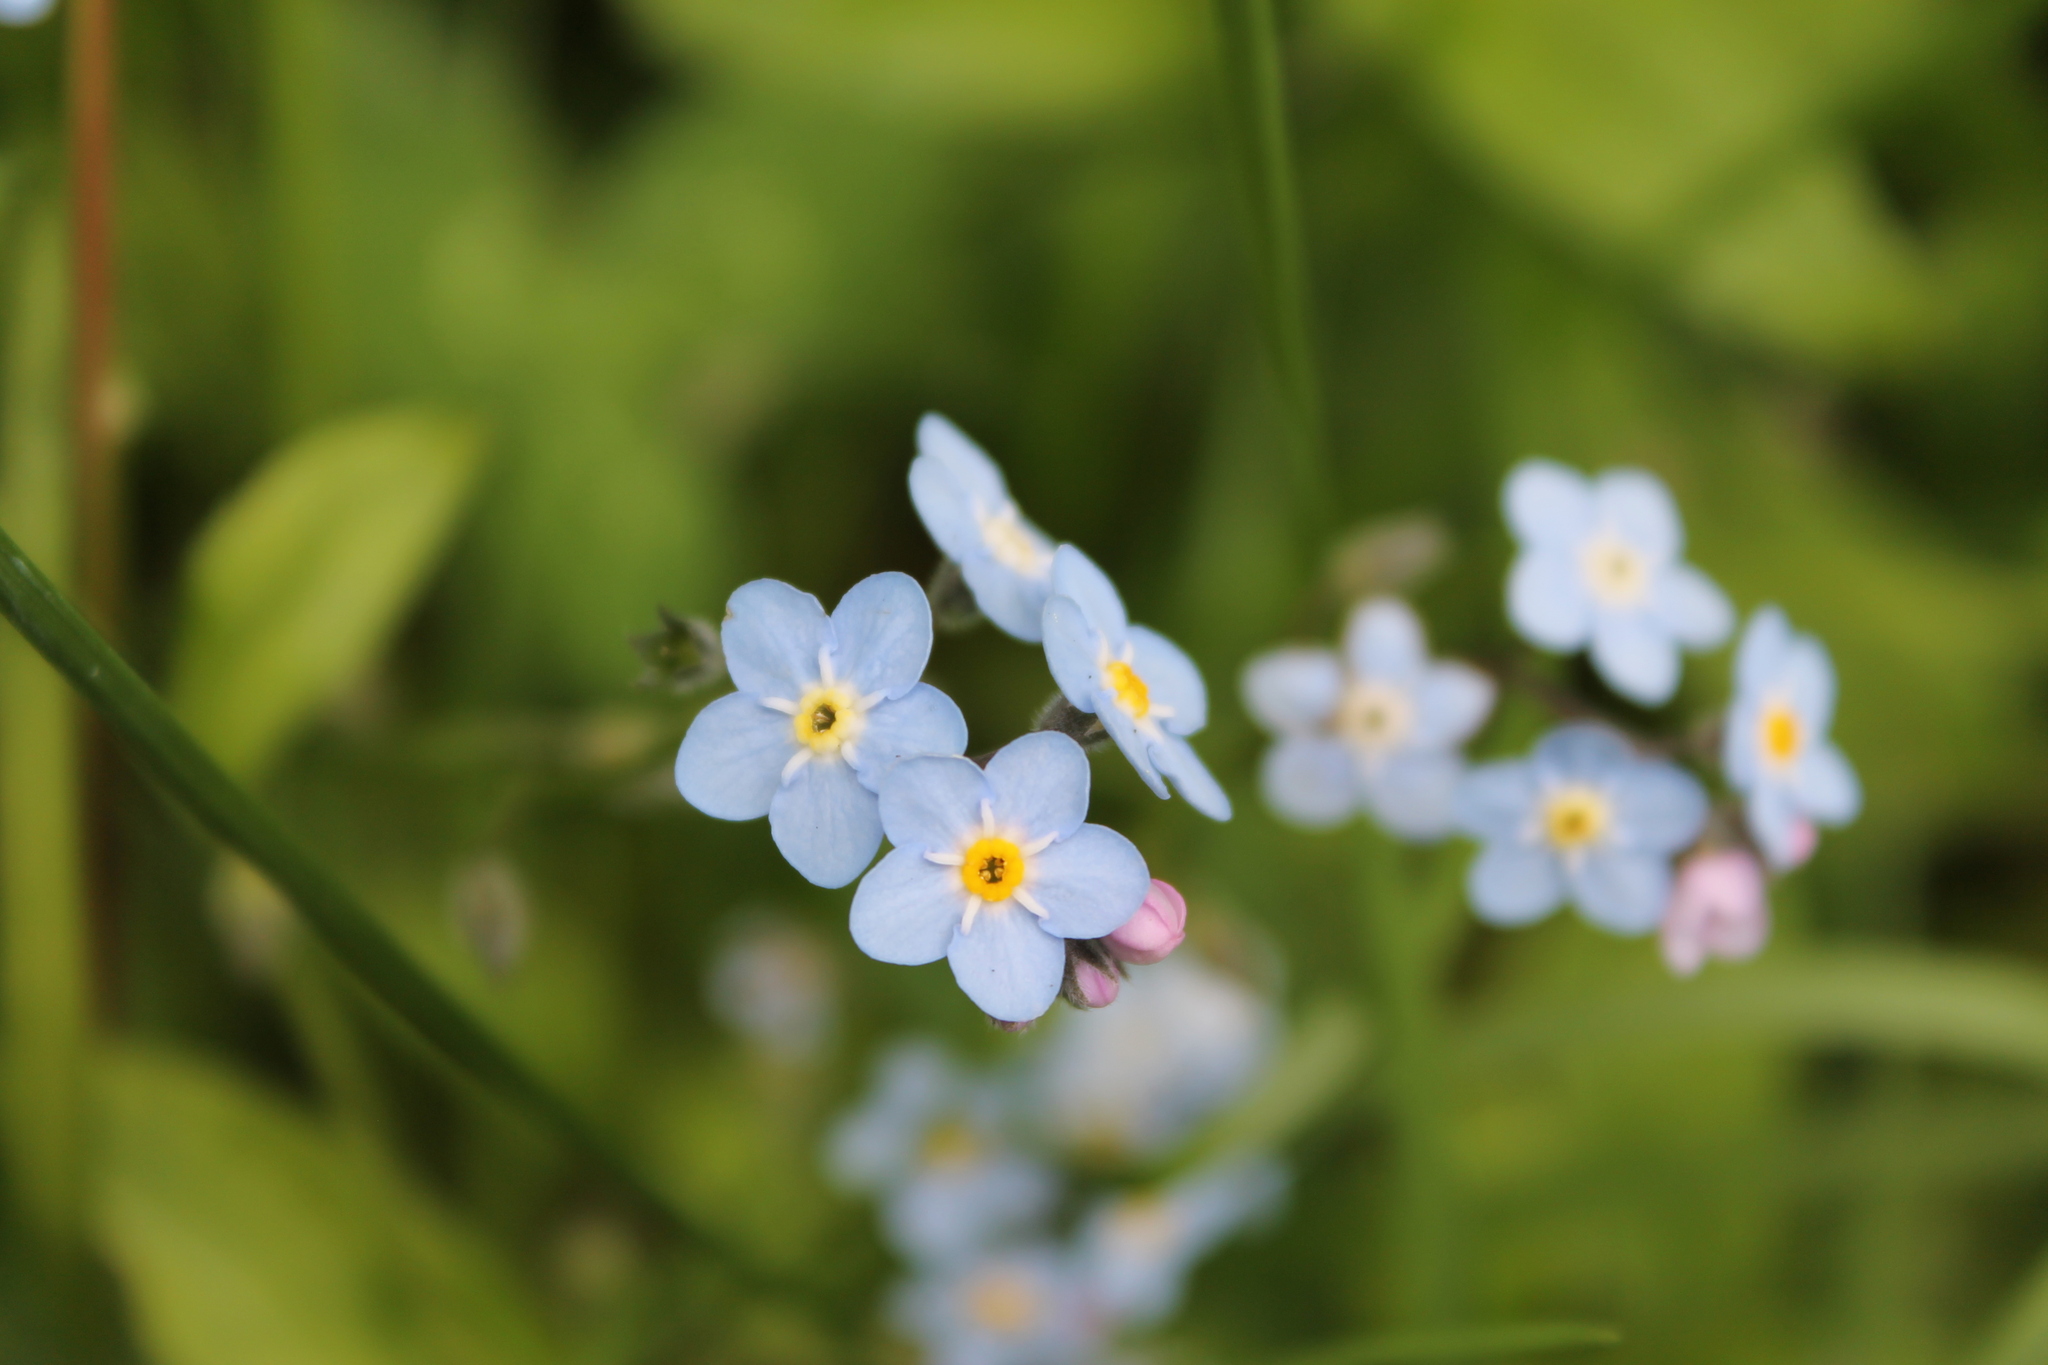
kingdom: Plantae
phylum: Tracheophyta
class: Magnoliopsida
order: Boraginales
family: Boraginaceae
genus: Myosotis
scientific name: Myosotis latifolia
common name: Broadleaf forget-me-not
